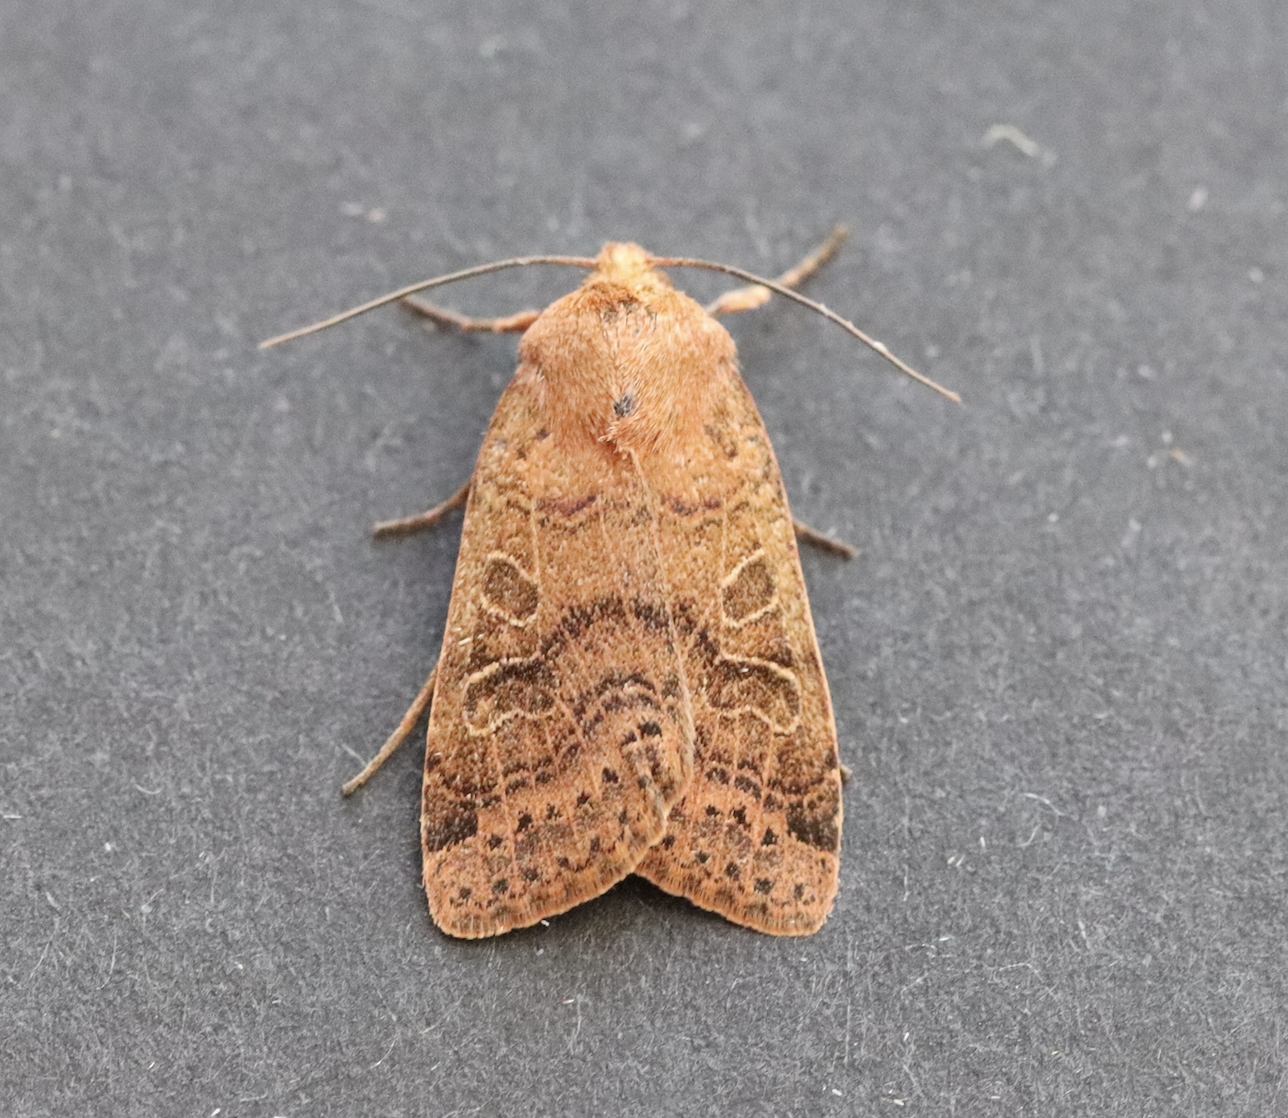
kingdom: Animalia
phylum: Arthropoda
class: Insecta
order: Lepidoptera
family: Noctuidae
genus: Agrochola
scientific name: Agrochola nitida
